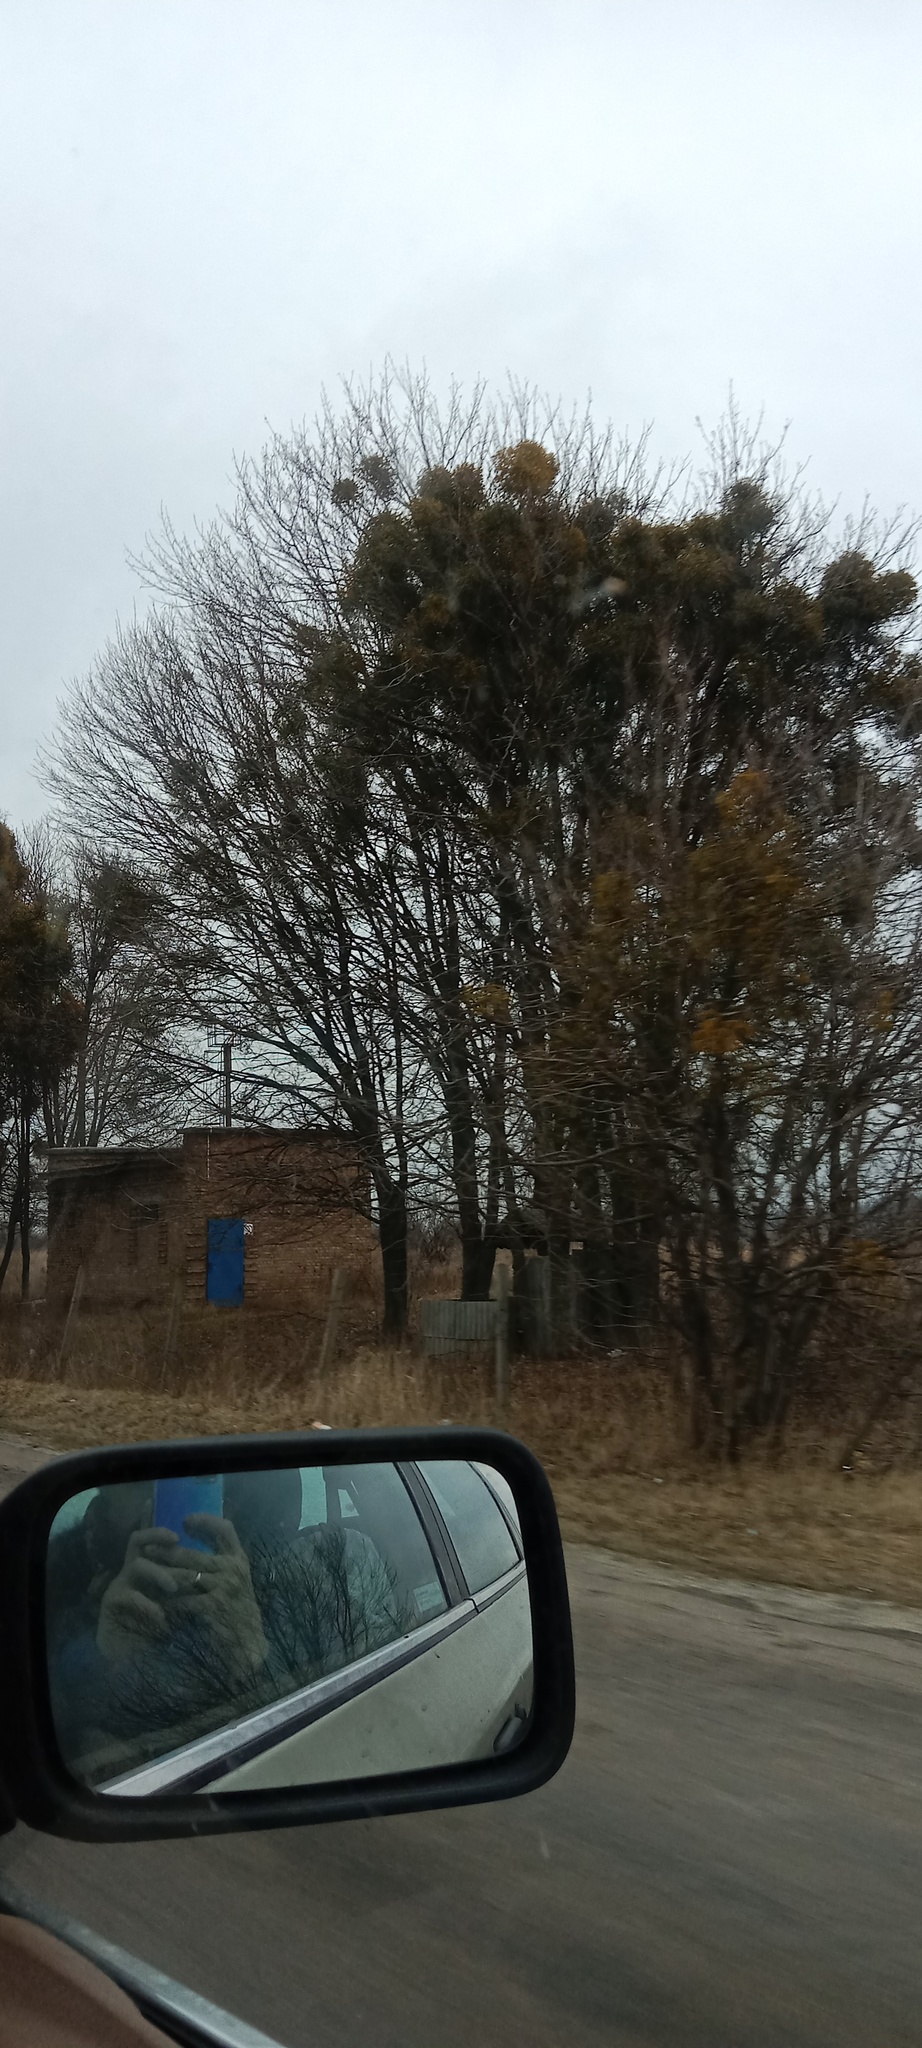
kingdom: Plantae
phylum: Tracheophyta
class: Magnoliopsida
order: Santalales
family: Viscaceae
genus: Viscum
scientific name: Viscum album
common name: Mistletoe
